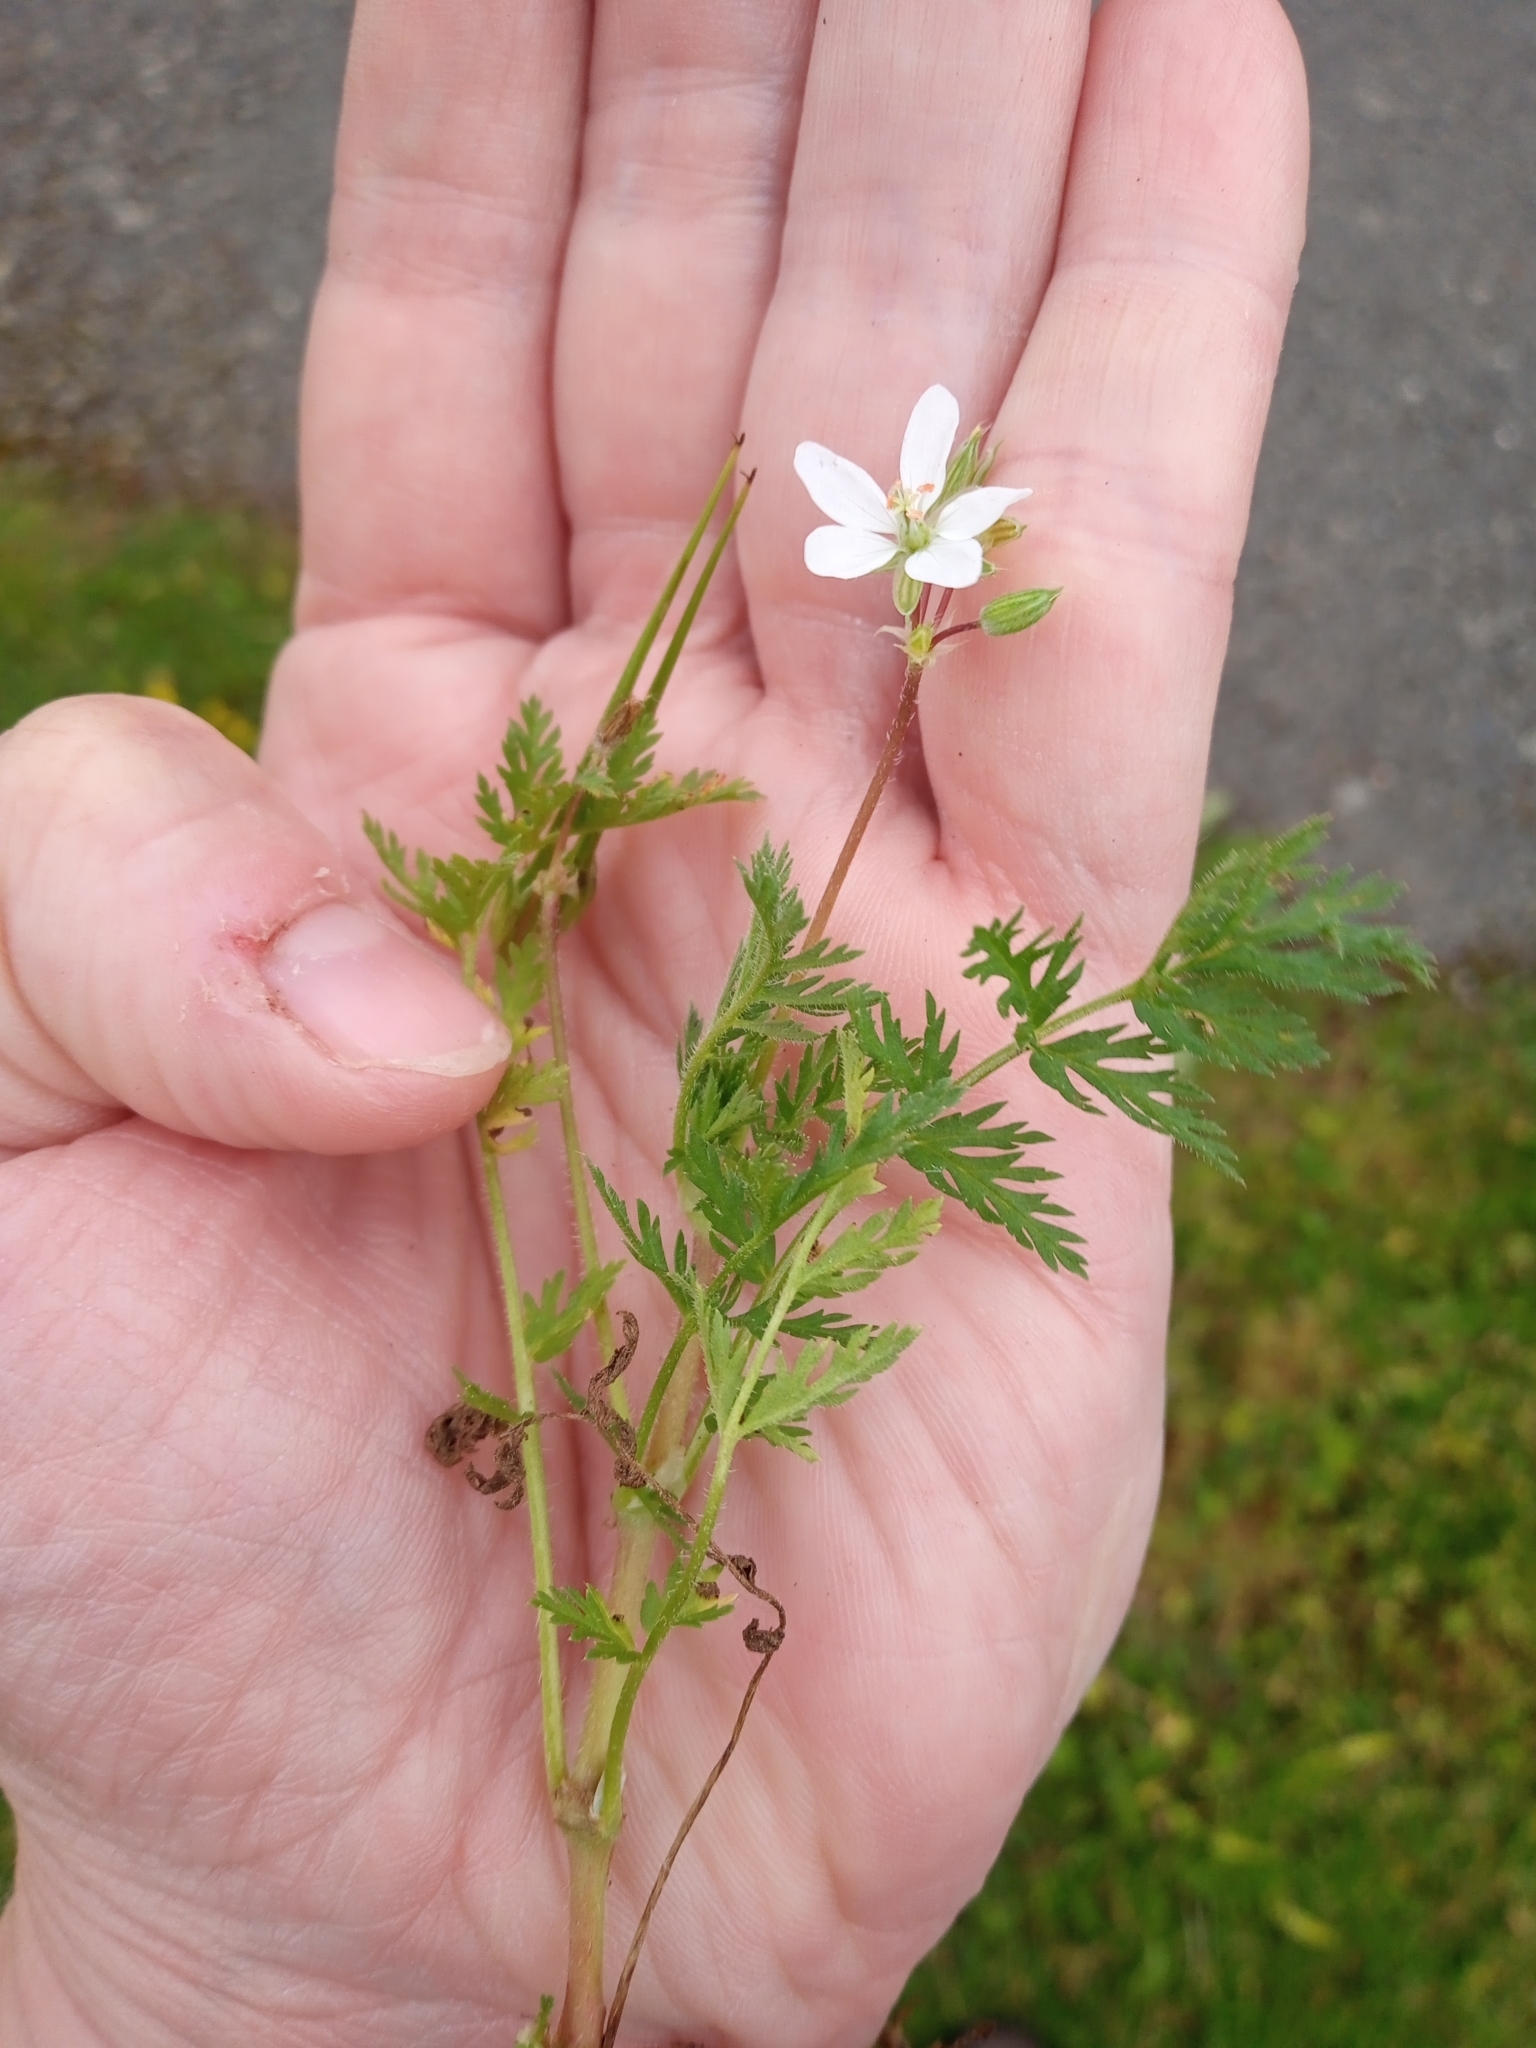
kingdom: Plantae
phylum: Tracheophyta
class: Magnoliopsida
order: Geraniales
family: Geraniaceae
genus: Erodium
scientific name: Erodium cicutarium
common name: Common stork's-bill
